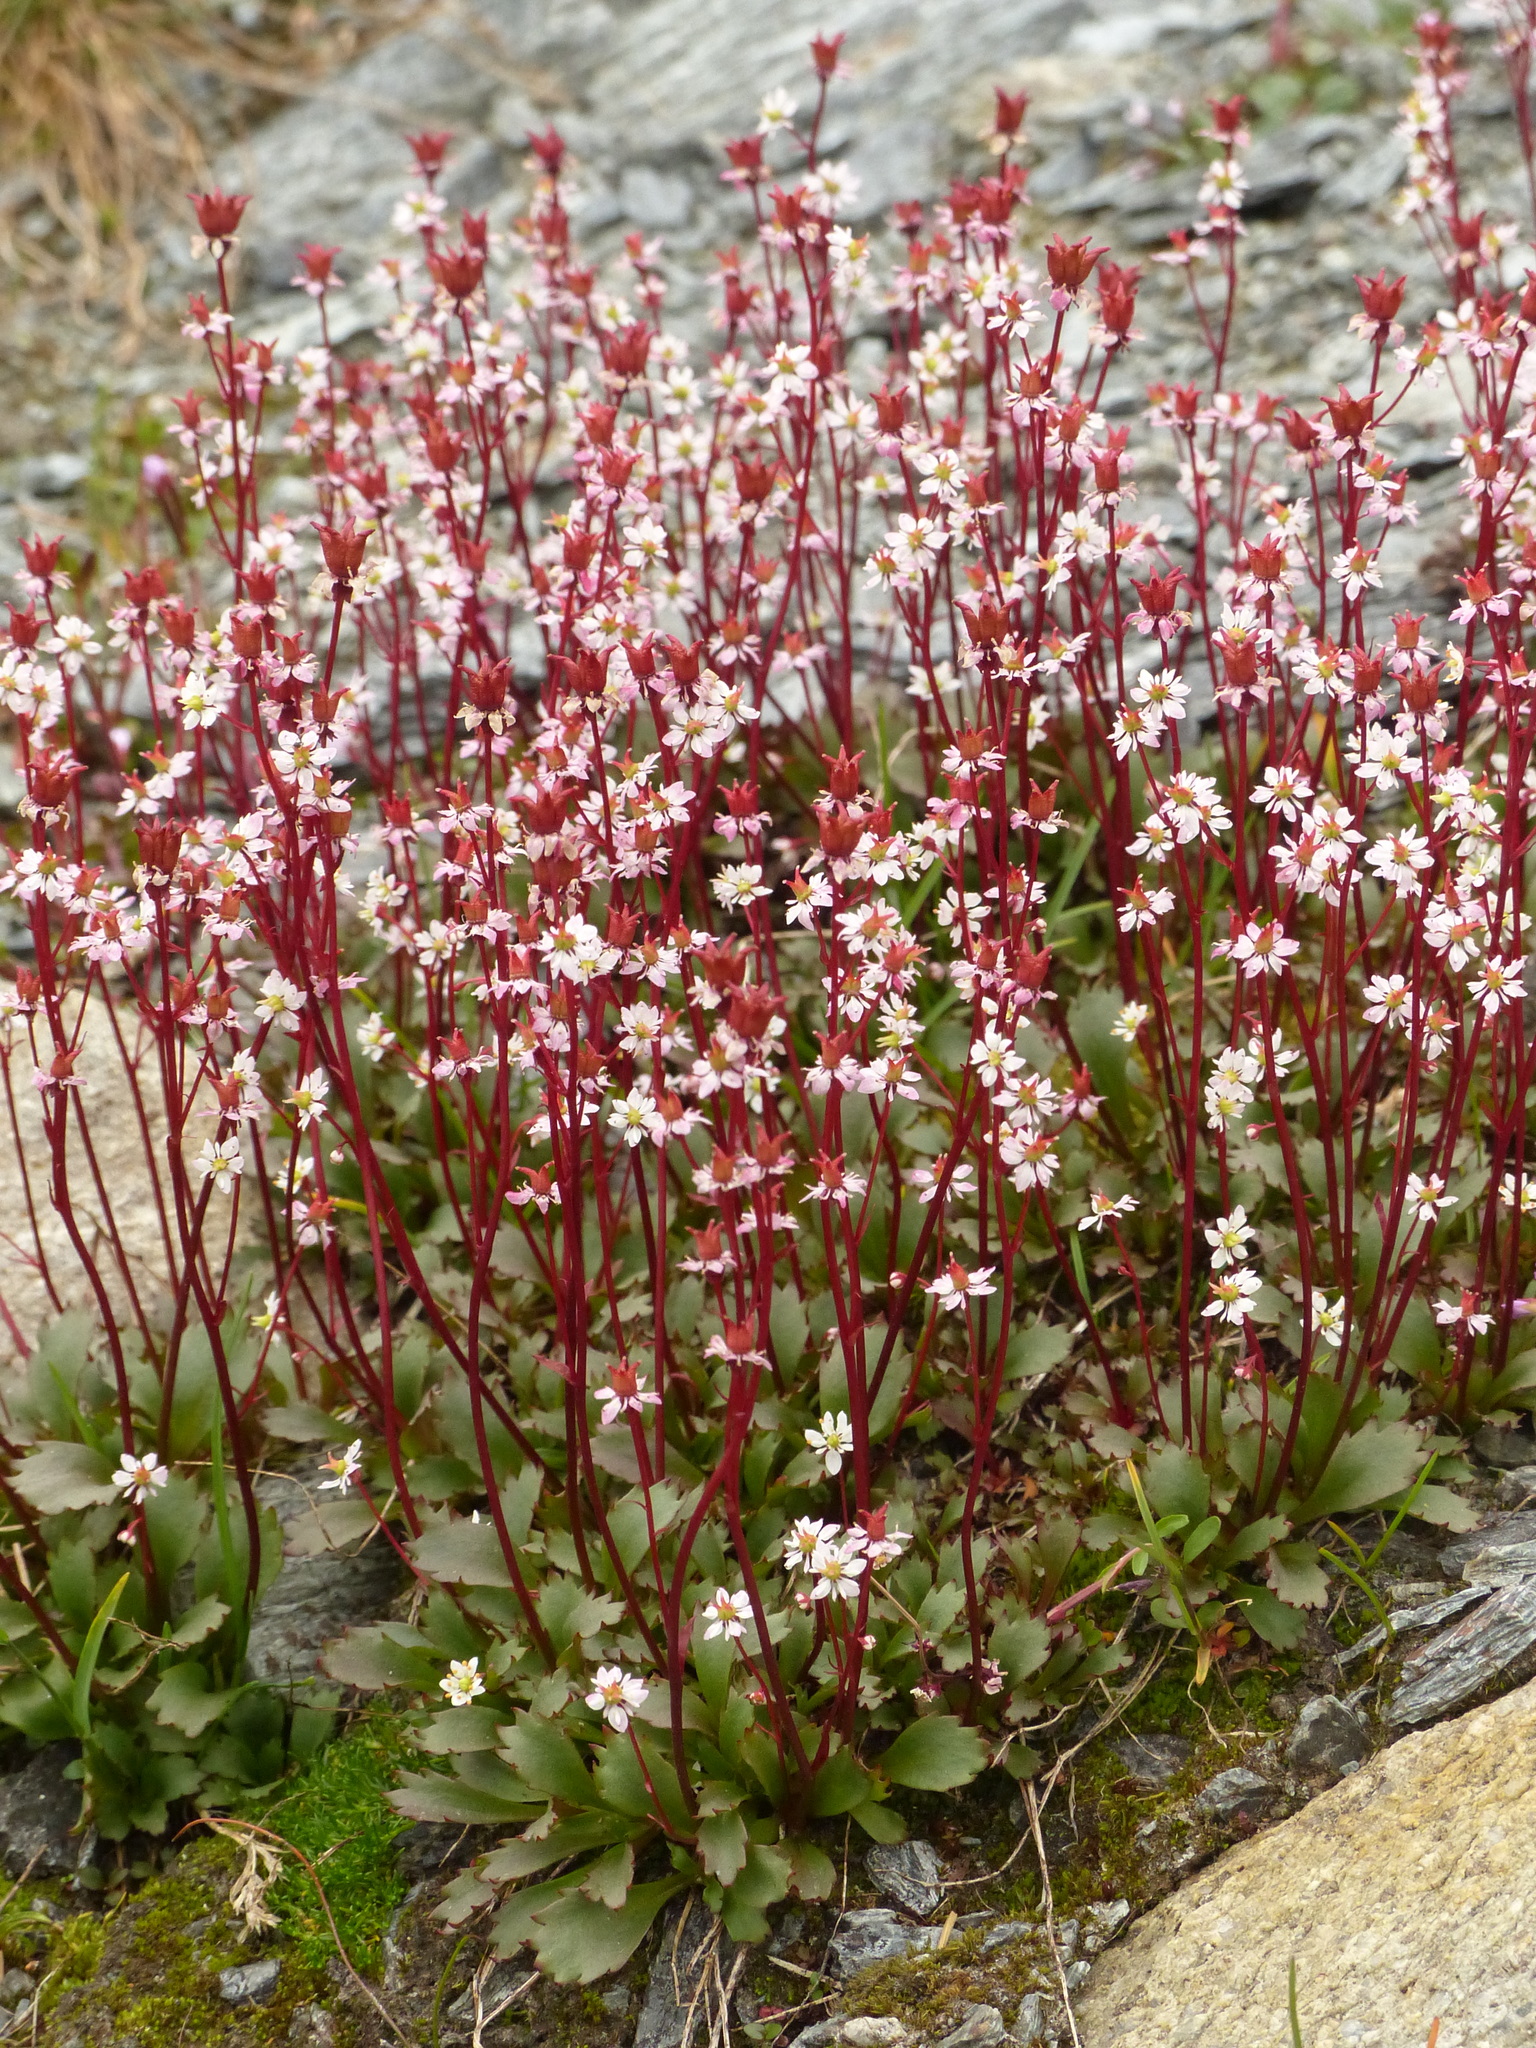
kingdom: Plantae
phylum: Tracheophyta
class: Magnoliopsida
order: Saxifragales
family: Saxifragaceae
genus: Micranthes
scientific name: Micranthes lyallii
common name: Lyall's saxifrage
